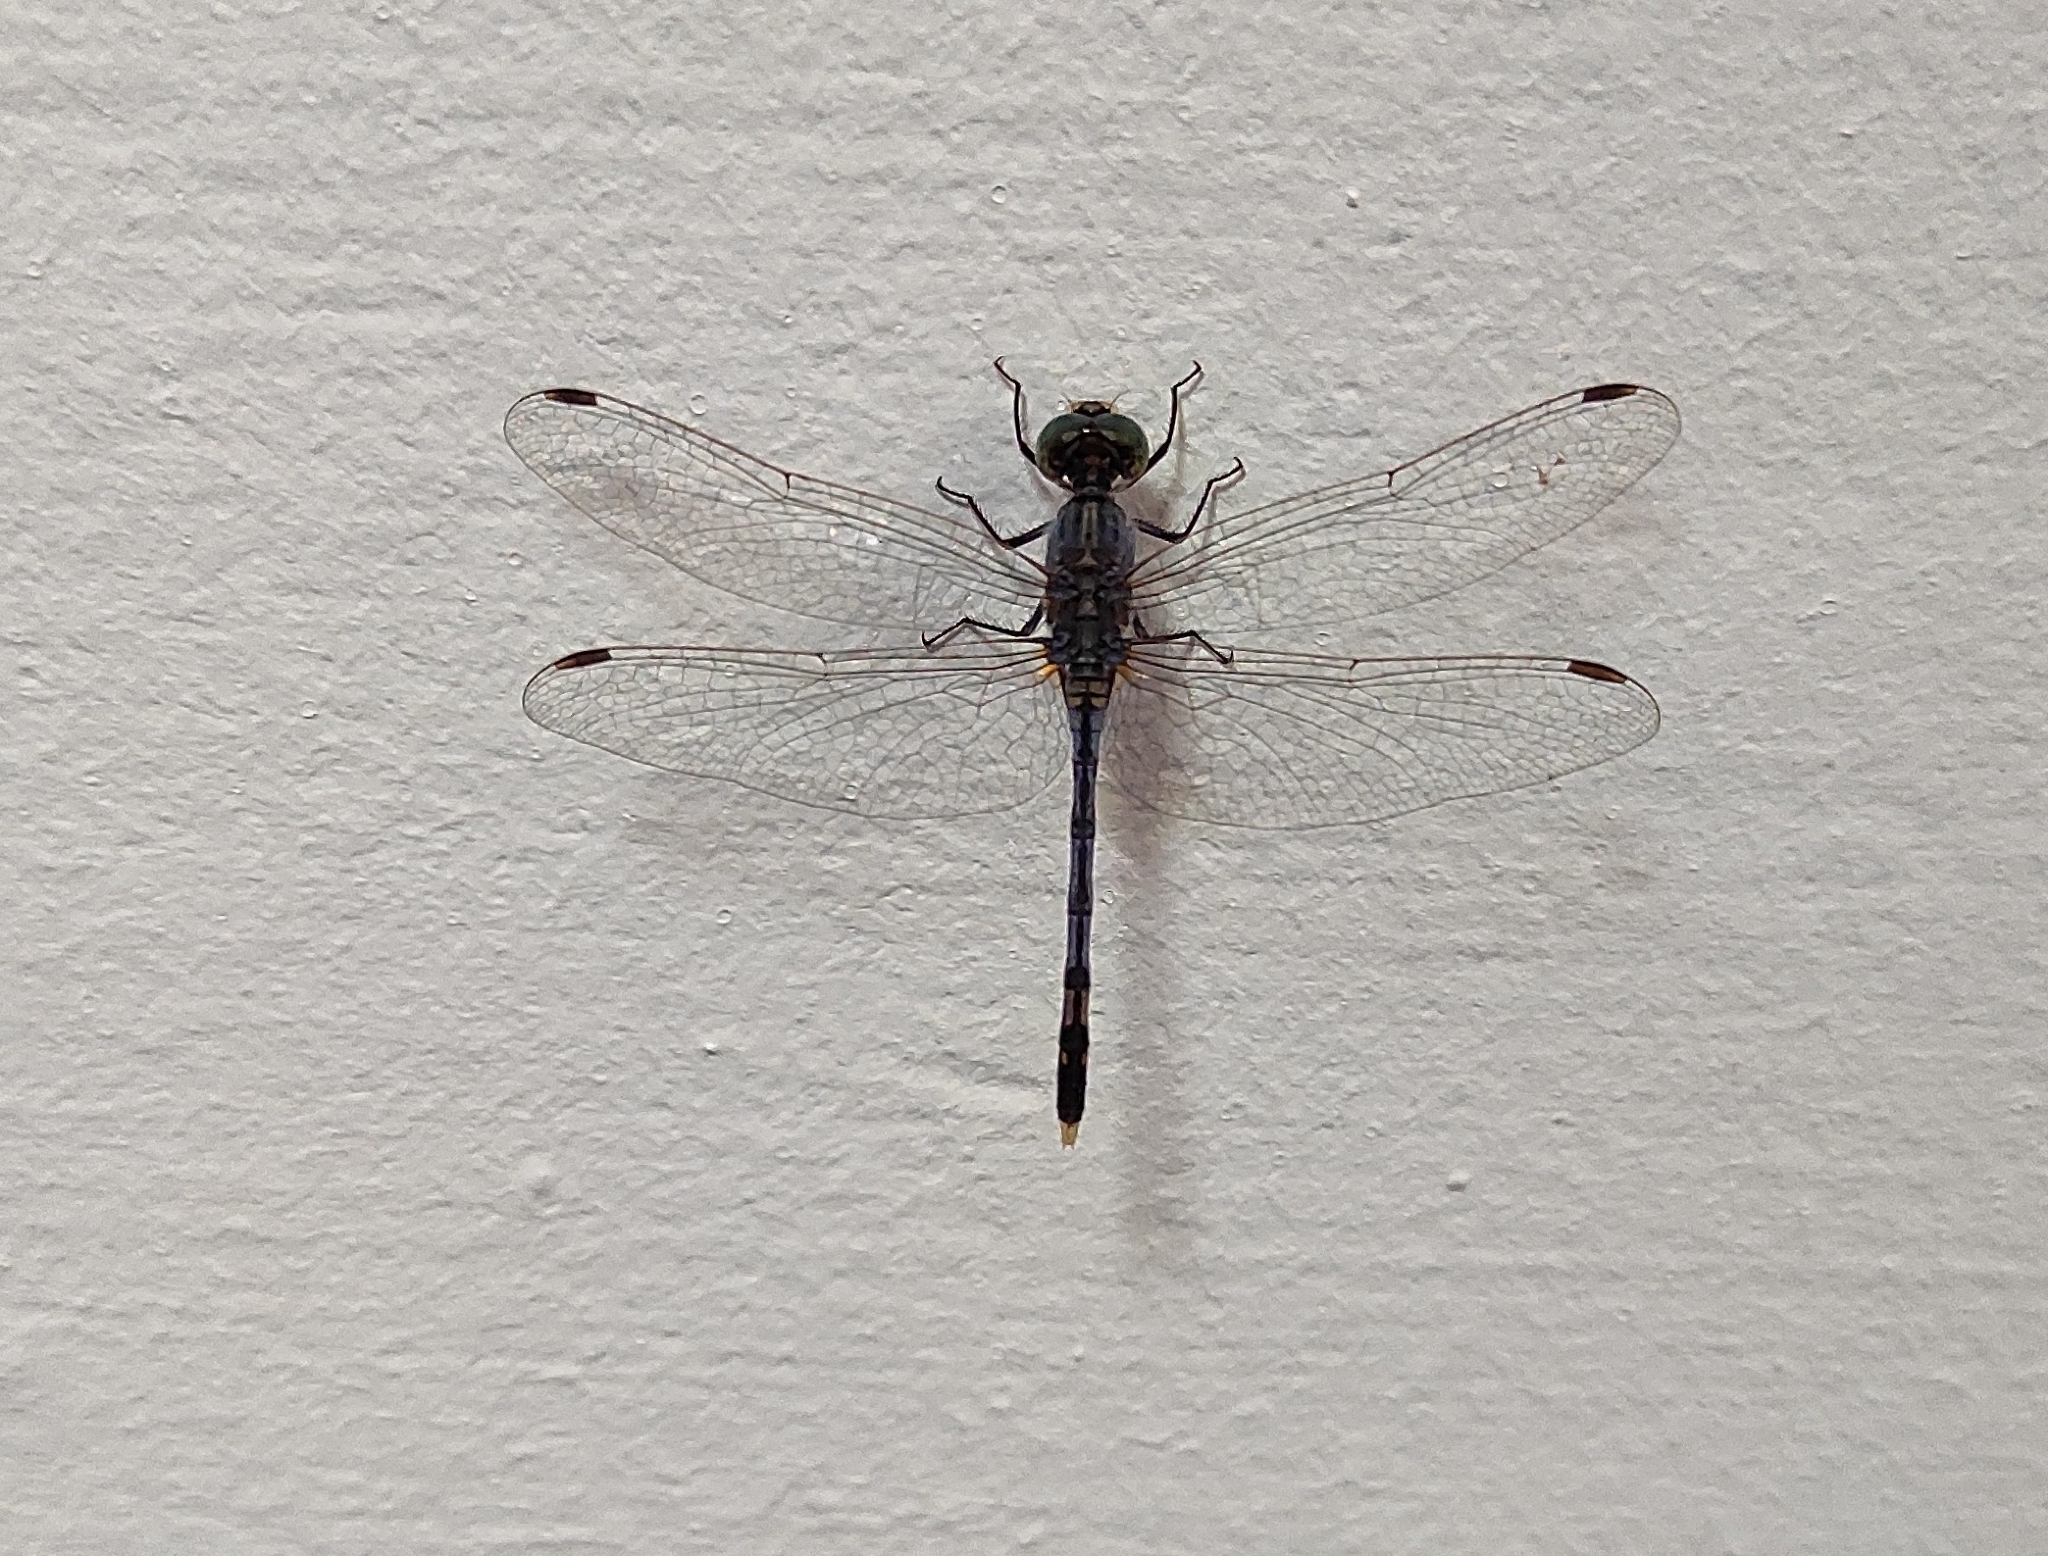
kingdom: Animalia
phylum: Arthropoda
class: Insecta
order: Odonata
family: Libellulidae
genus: Diplacodes
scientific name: Diplacodes trivialis
